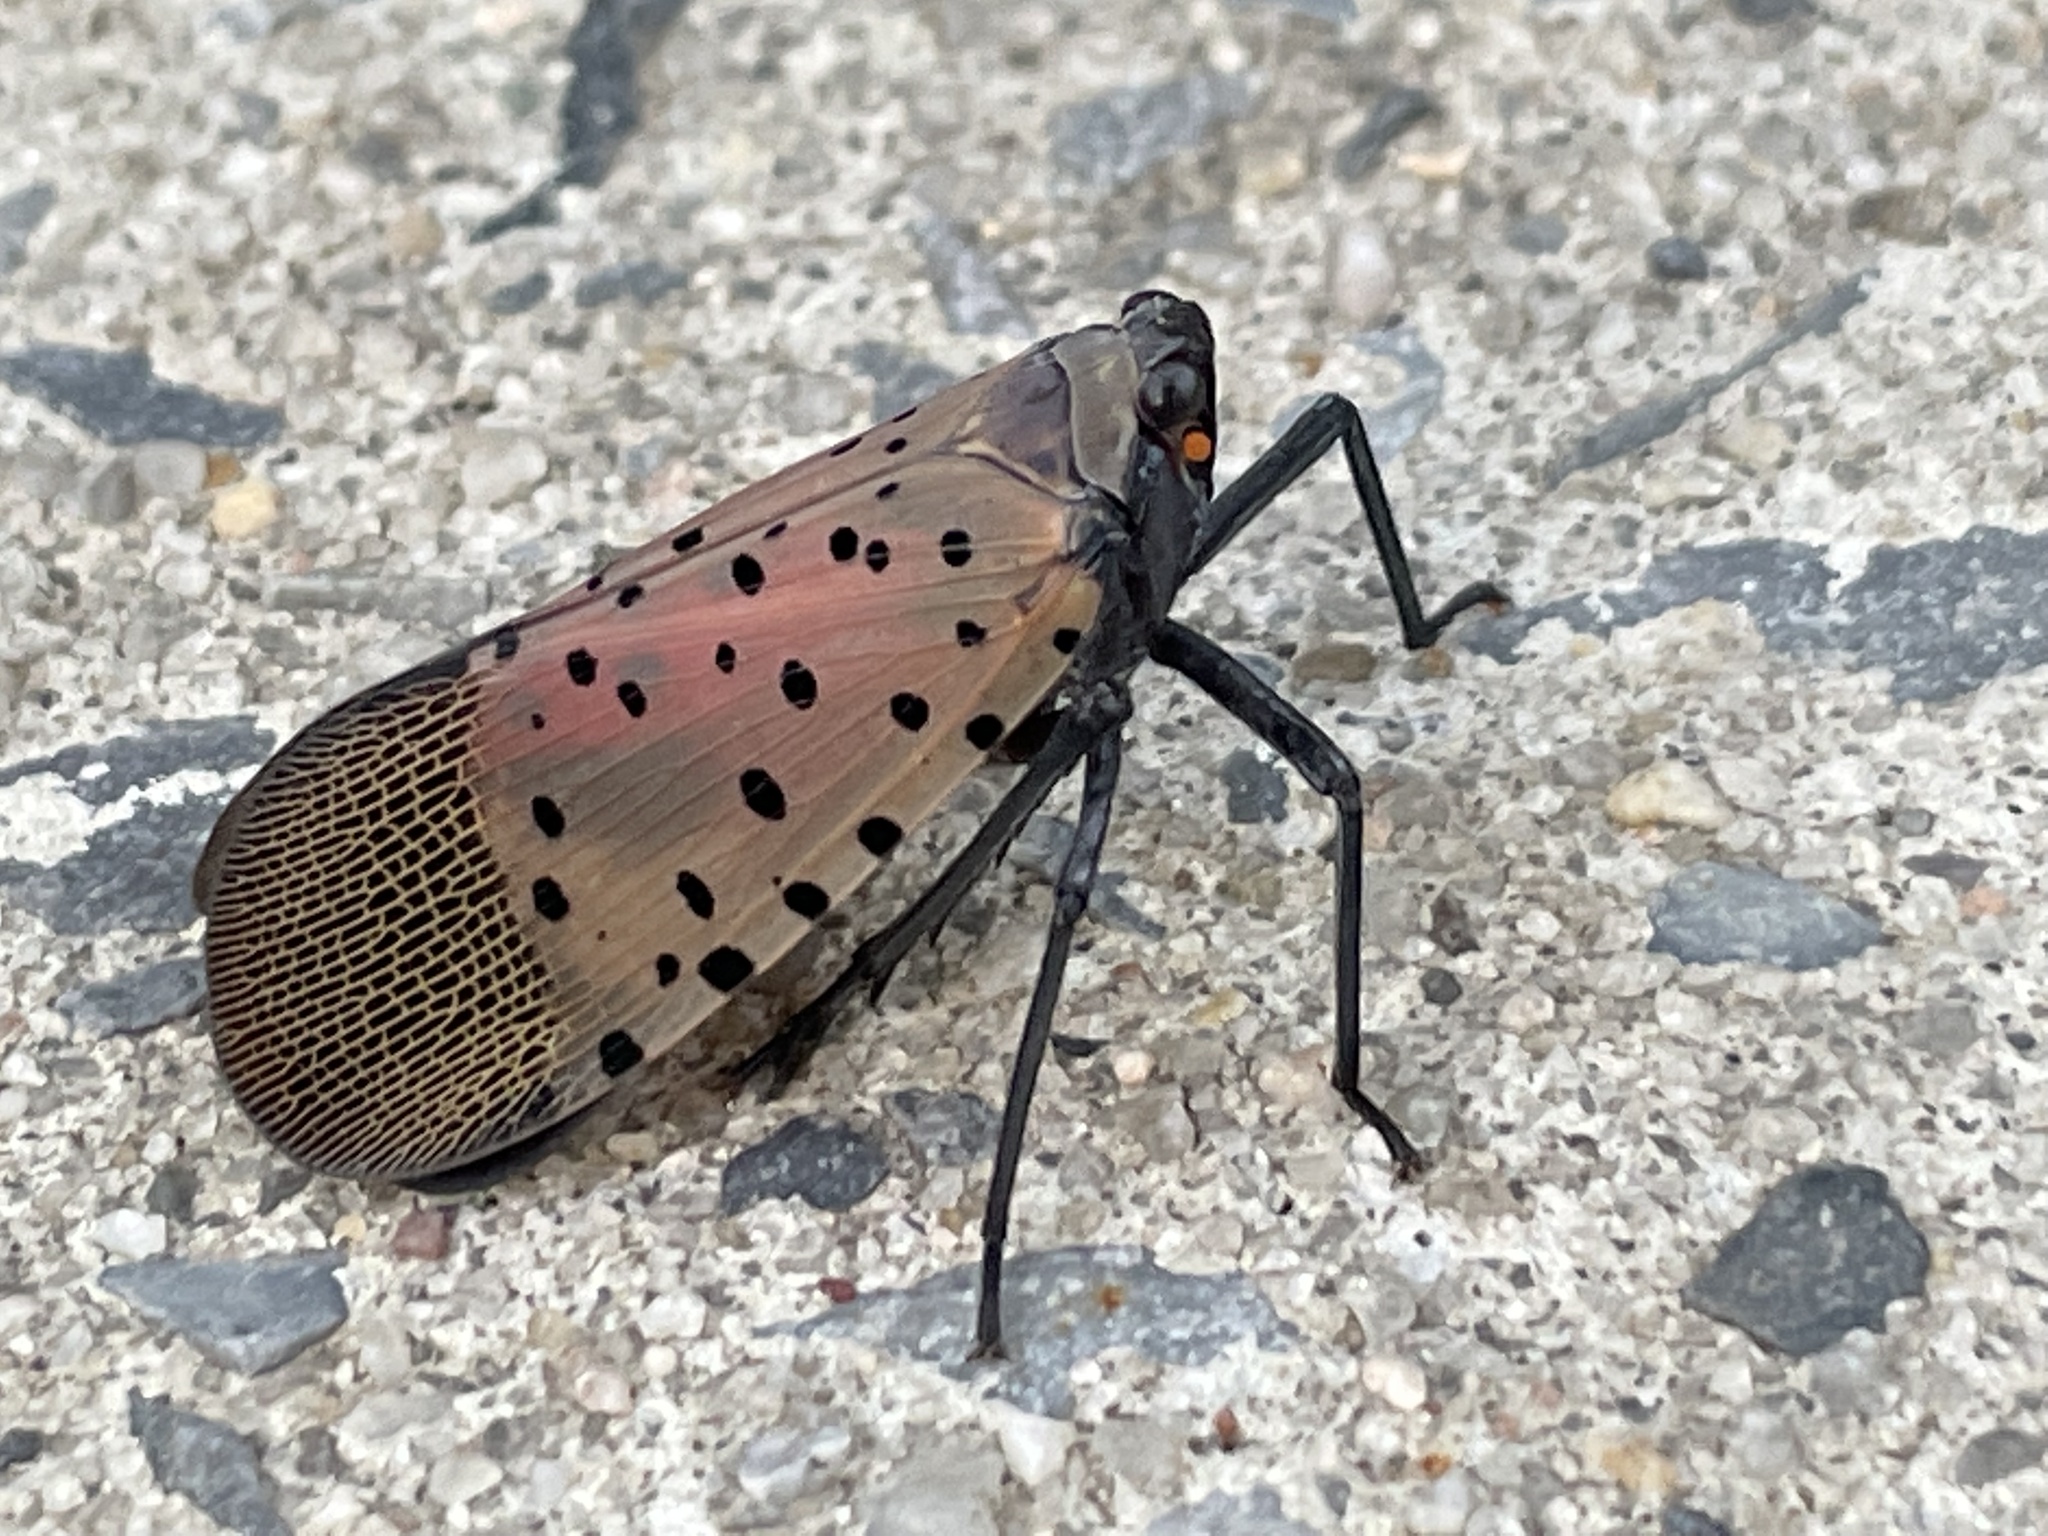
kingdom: Animalia
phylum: Arthropoda
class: Insecta
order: Hemiptera
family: Fulgoridae
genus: Lycorma
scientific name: Lycorma delicatula
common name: Spotted lanternfly
